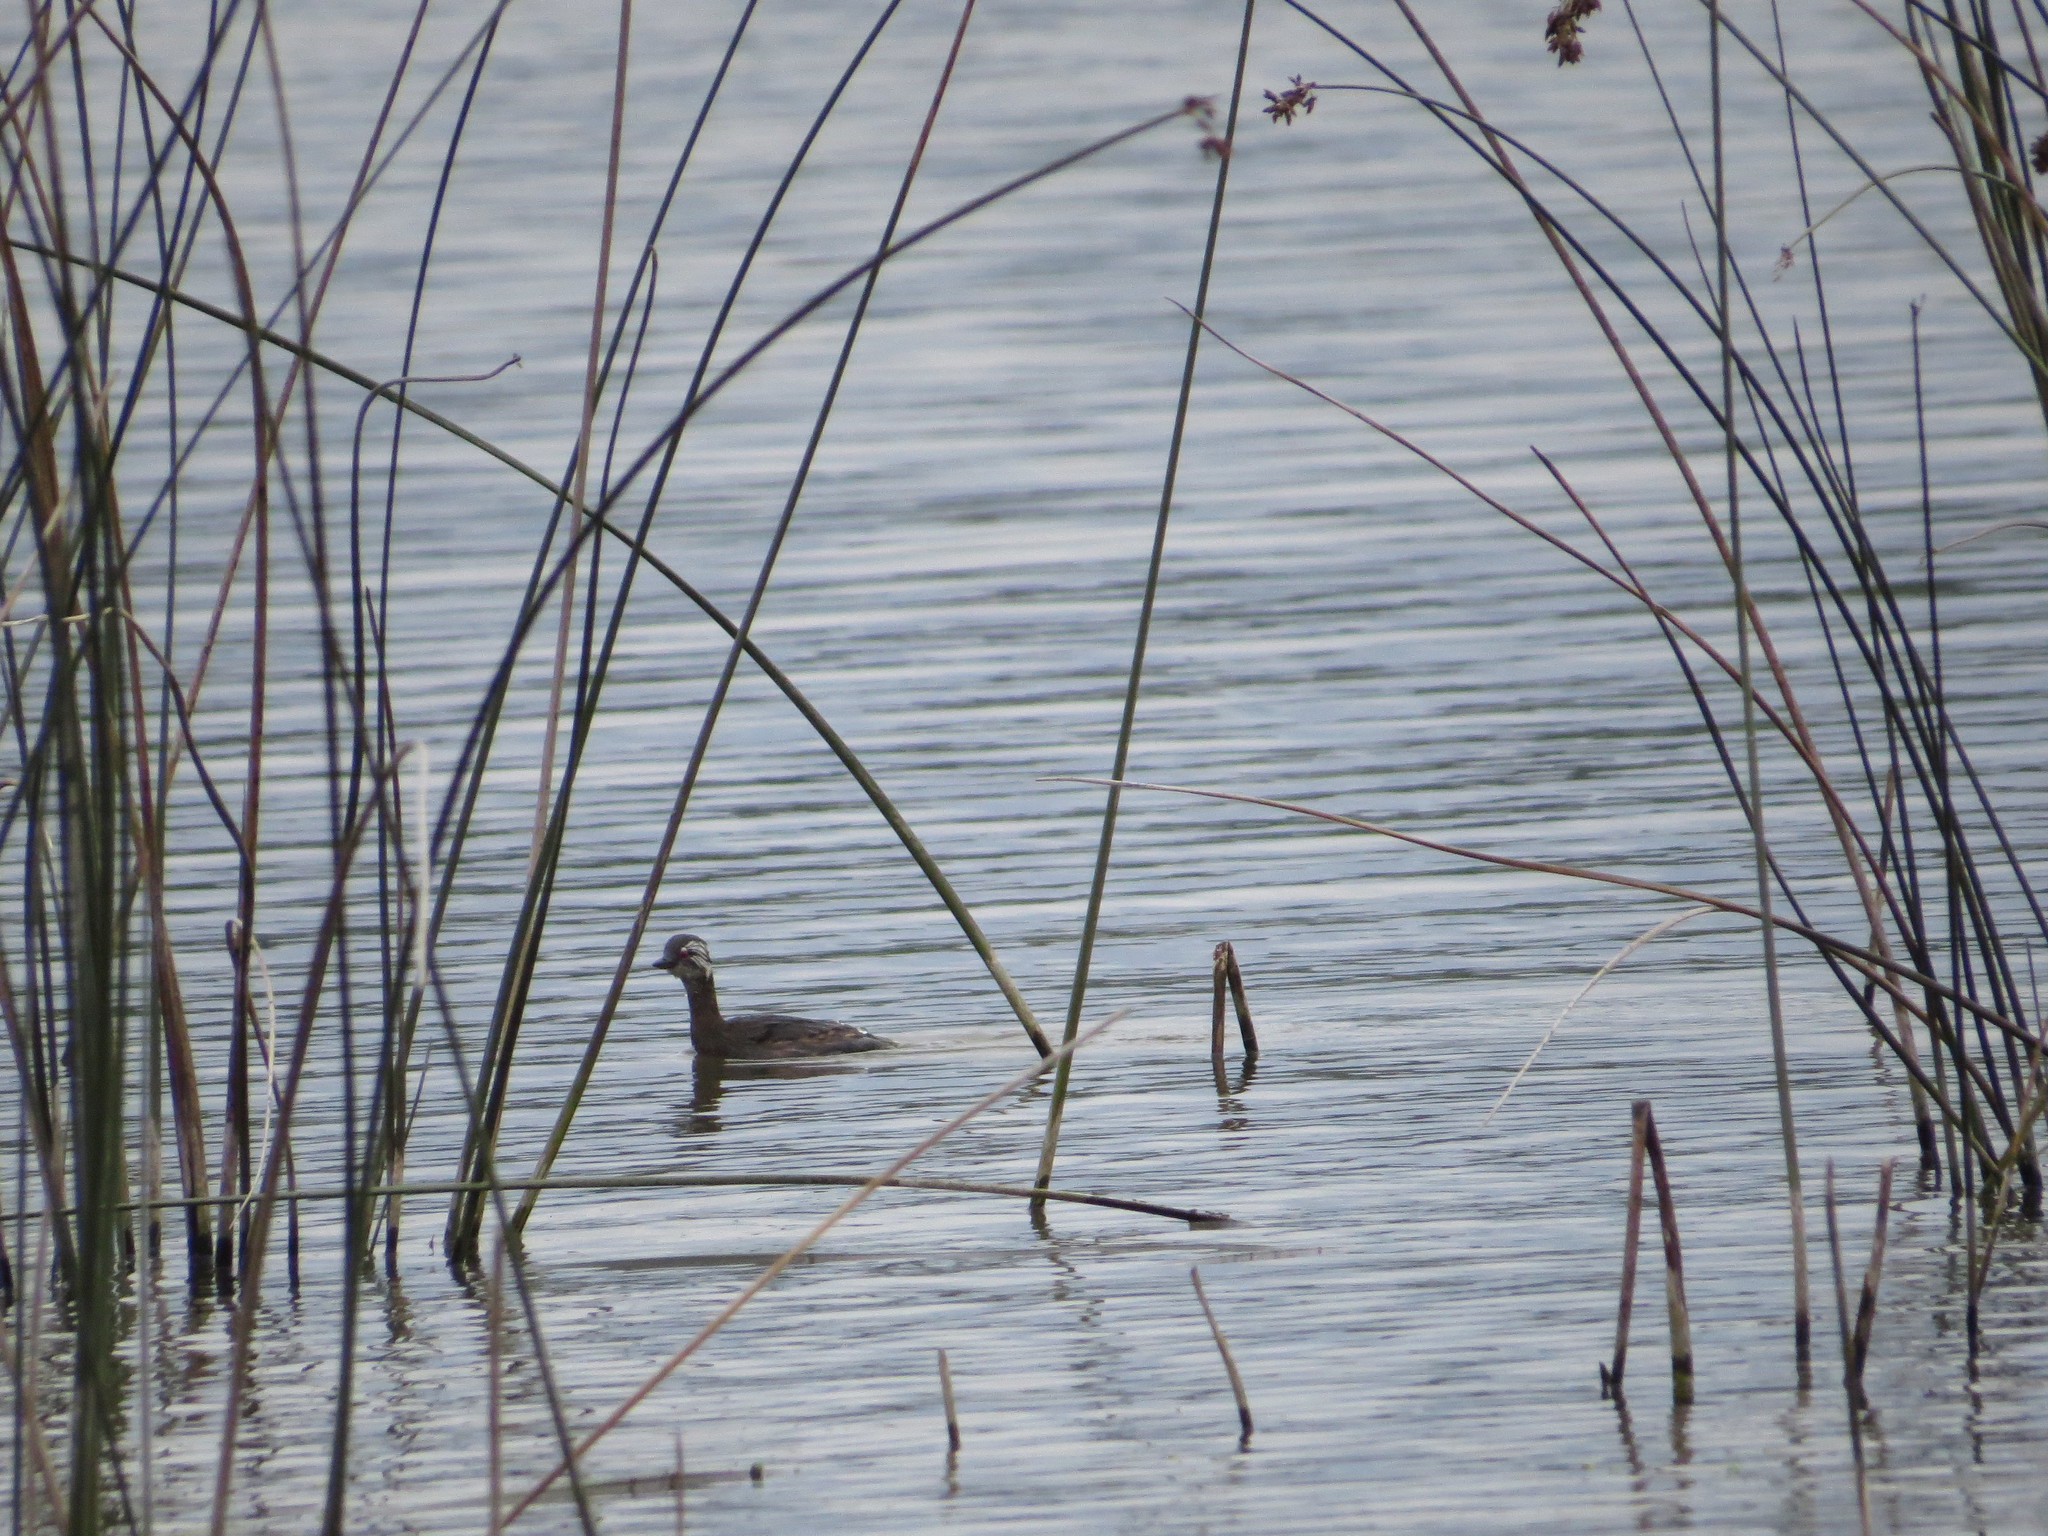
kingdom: Animalia
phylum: Chordata
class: Aves
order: Podicipediformes
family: Podicipedidae
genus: Rollandia
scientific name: Rollandia rolland
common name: White-tufted grebe
